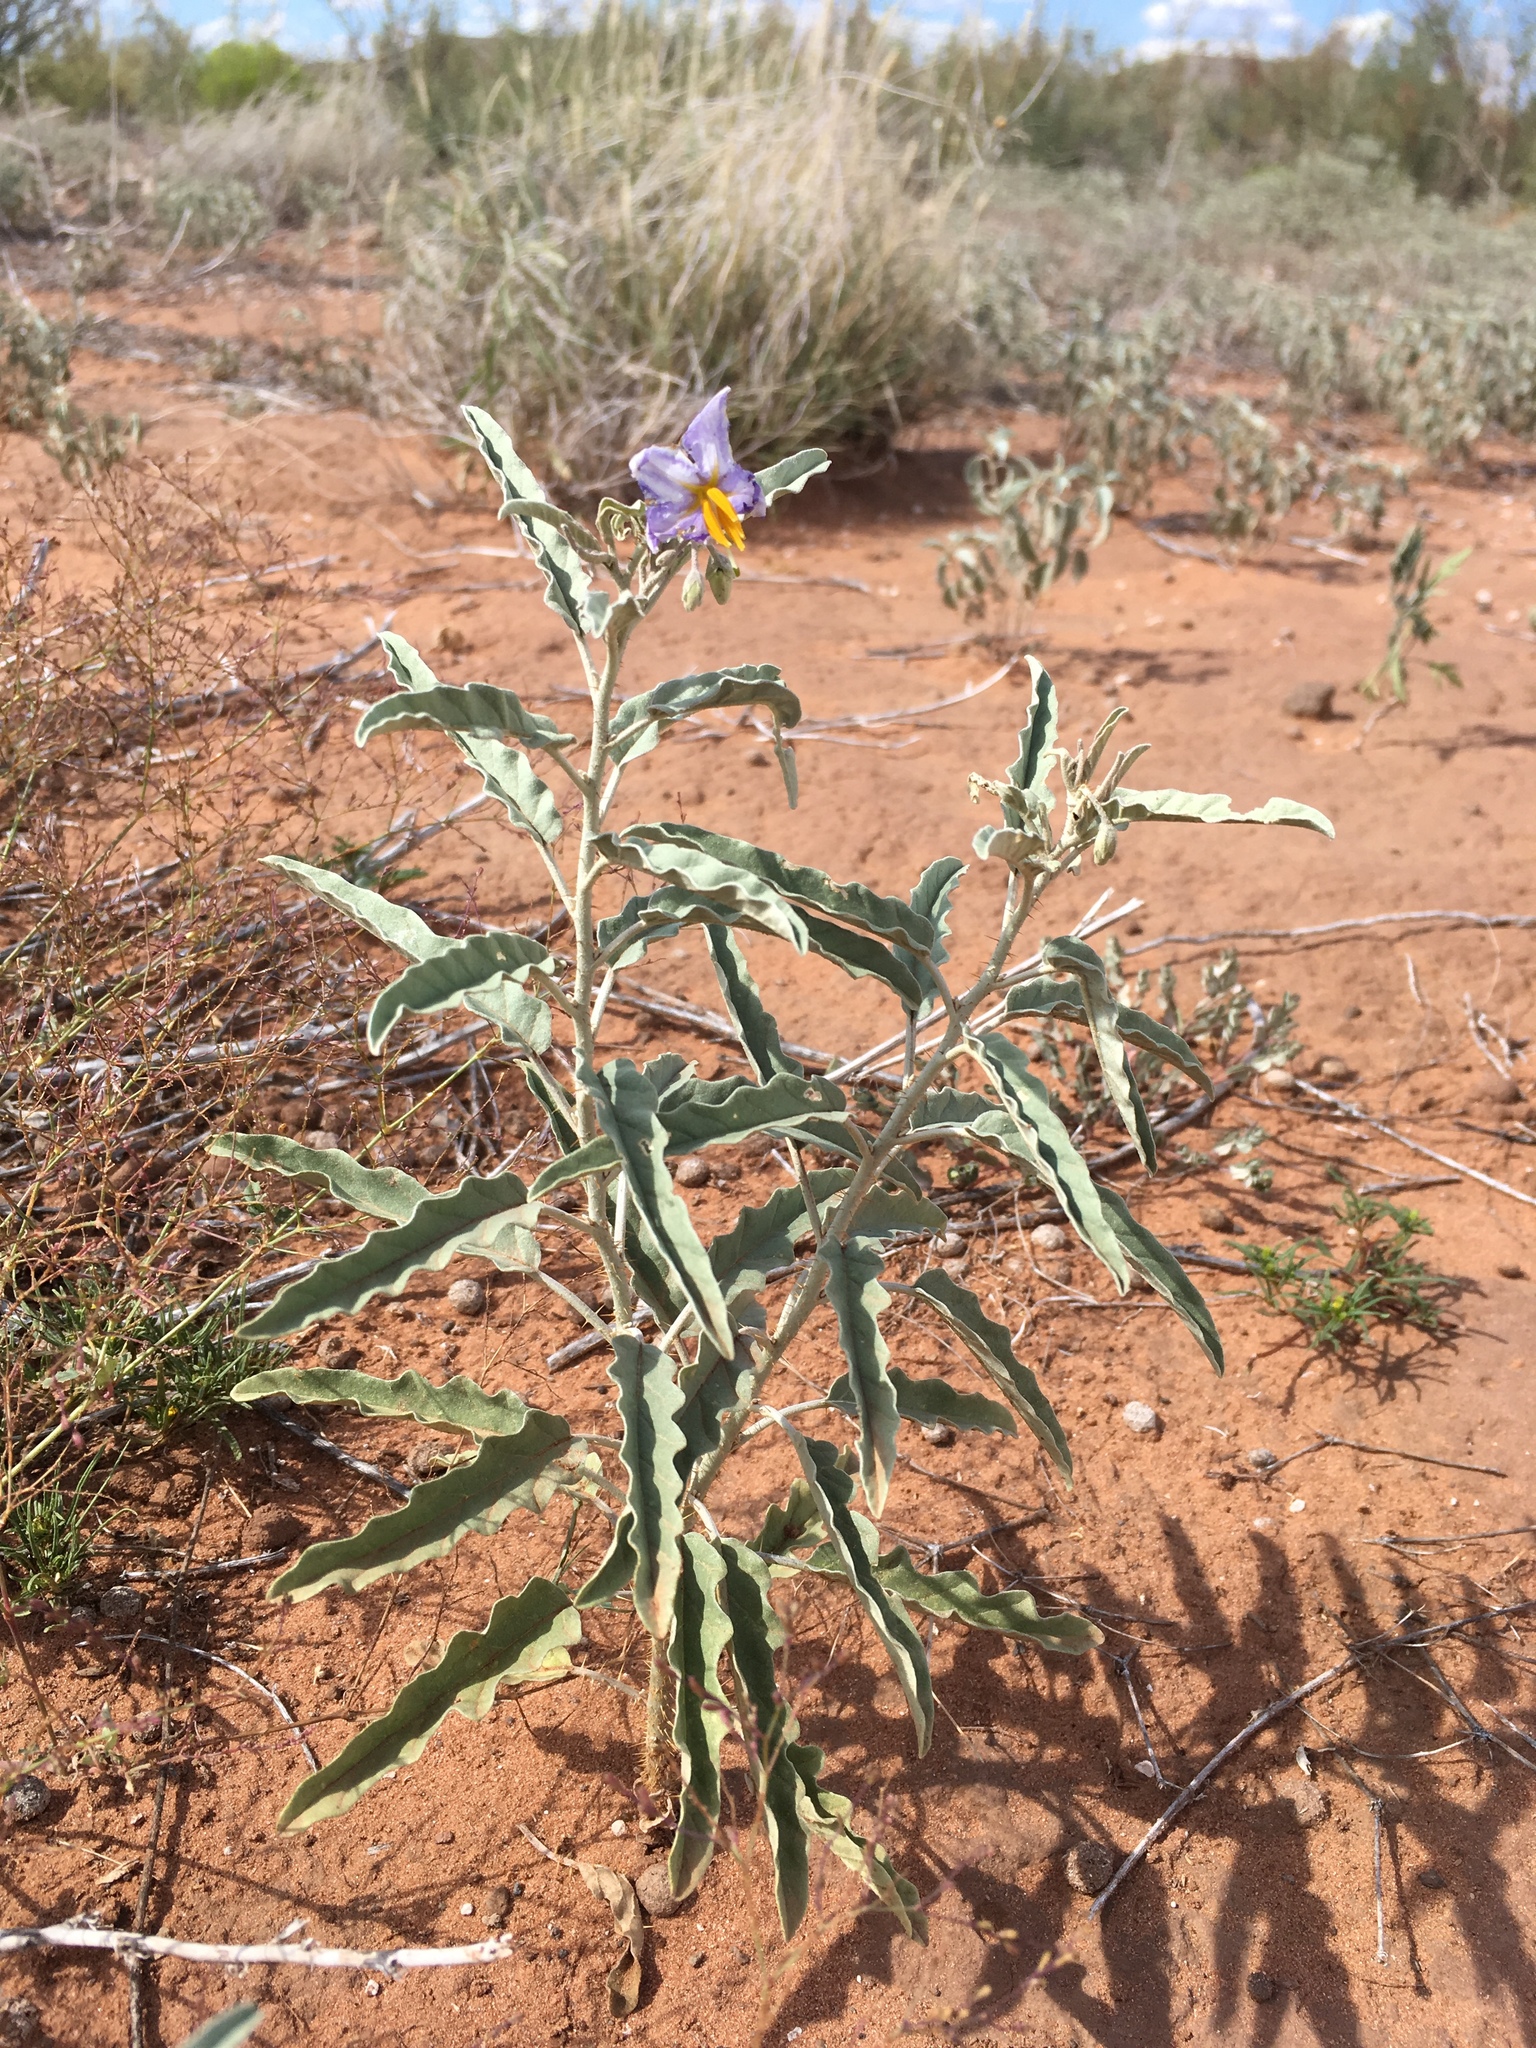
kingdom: Plantae
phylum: Tracheophyta
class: Magnoliopsida
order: Solanales
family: Solanaceae
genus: Solanum
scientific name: Solanum elaeagnifolium
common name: Silverleaf nightshade
